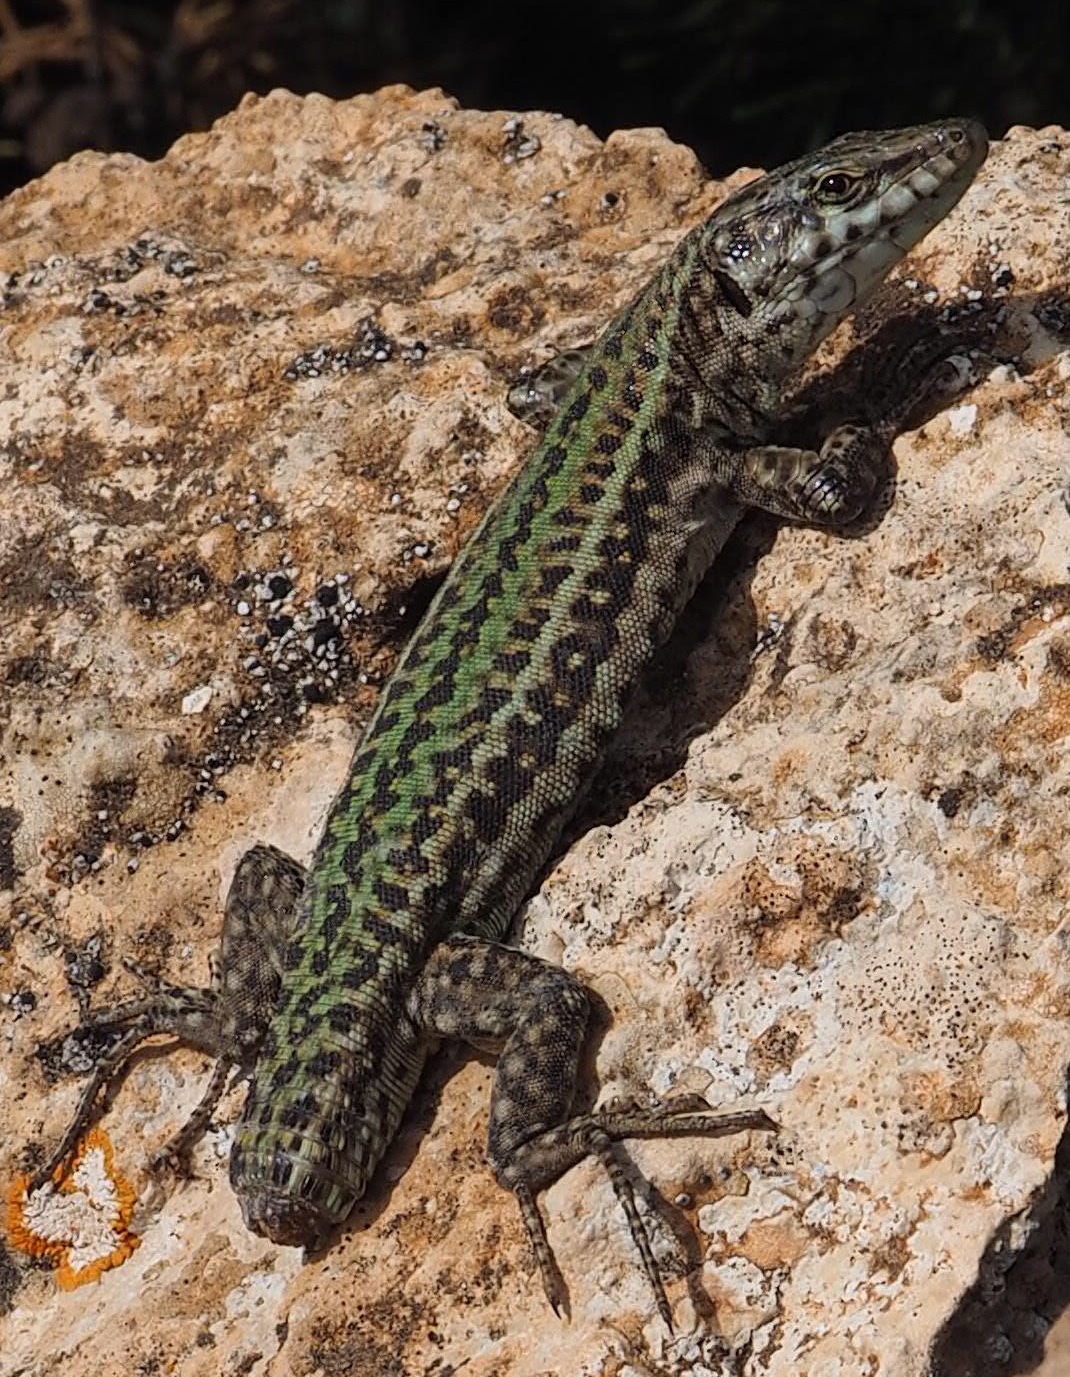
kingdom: Animalia
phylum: Chordata
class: Squamata
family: Lacertidae
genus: Podarcis
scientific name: Podarcis pityusensis
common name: Ibiza wall lizard
